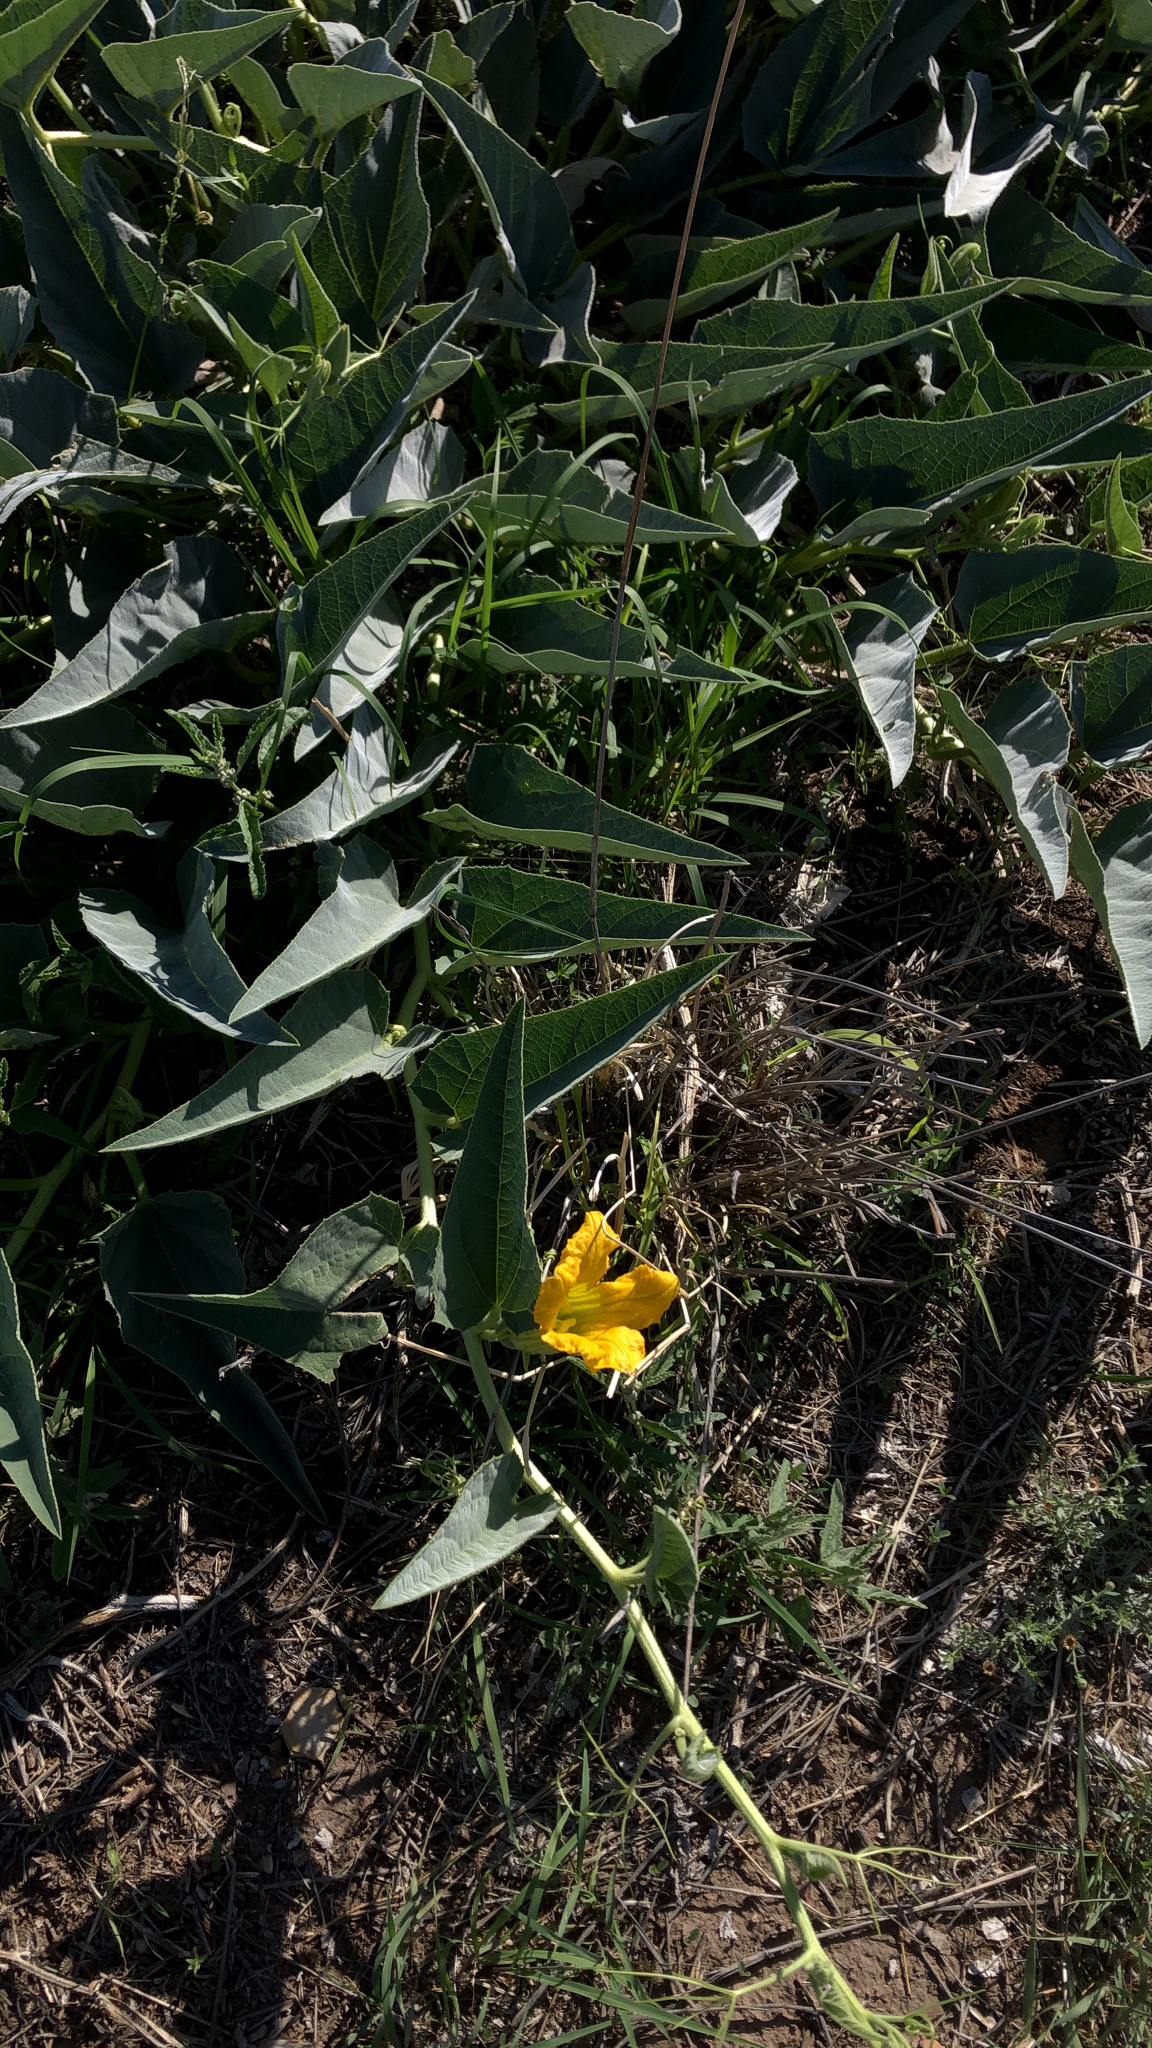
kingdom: Plantae
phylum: Tracheophyta
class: Magnoliopsida
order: Cucurbitales
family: Cucurbitaceae
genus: Cucurbita
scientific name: Cucurbita foetidissima
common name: Buffalo gourd
